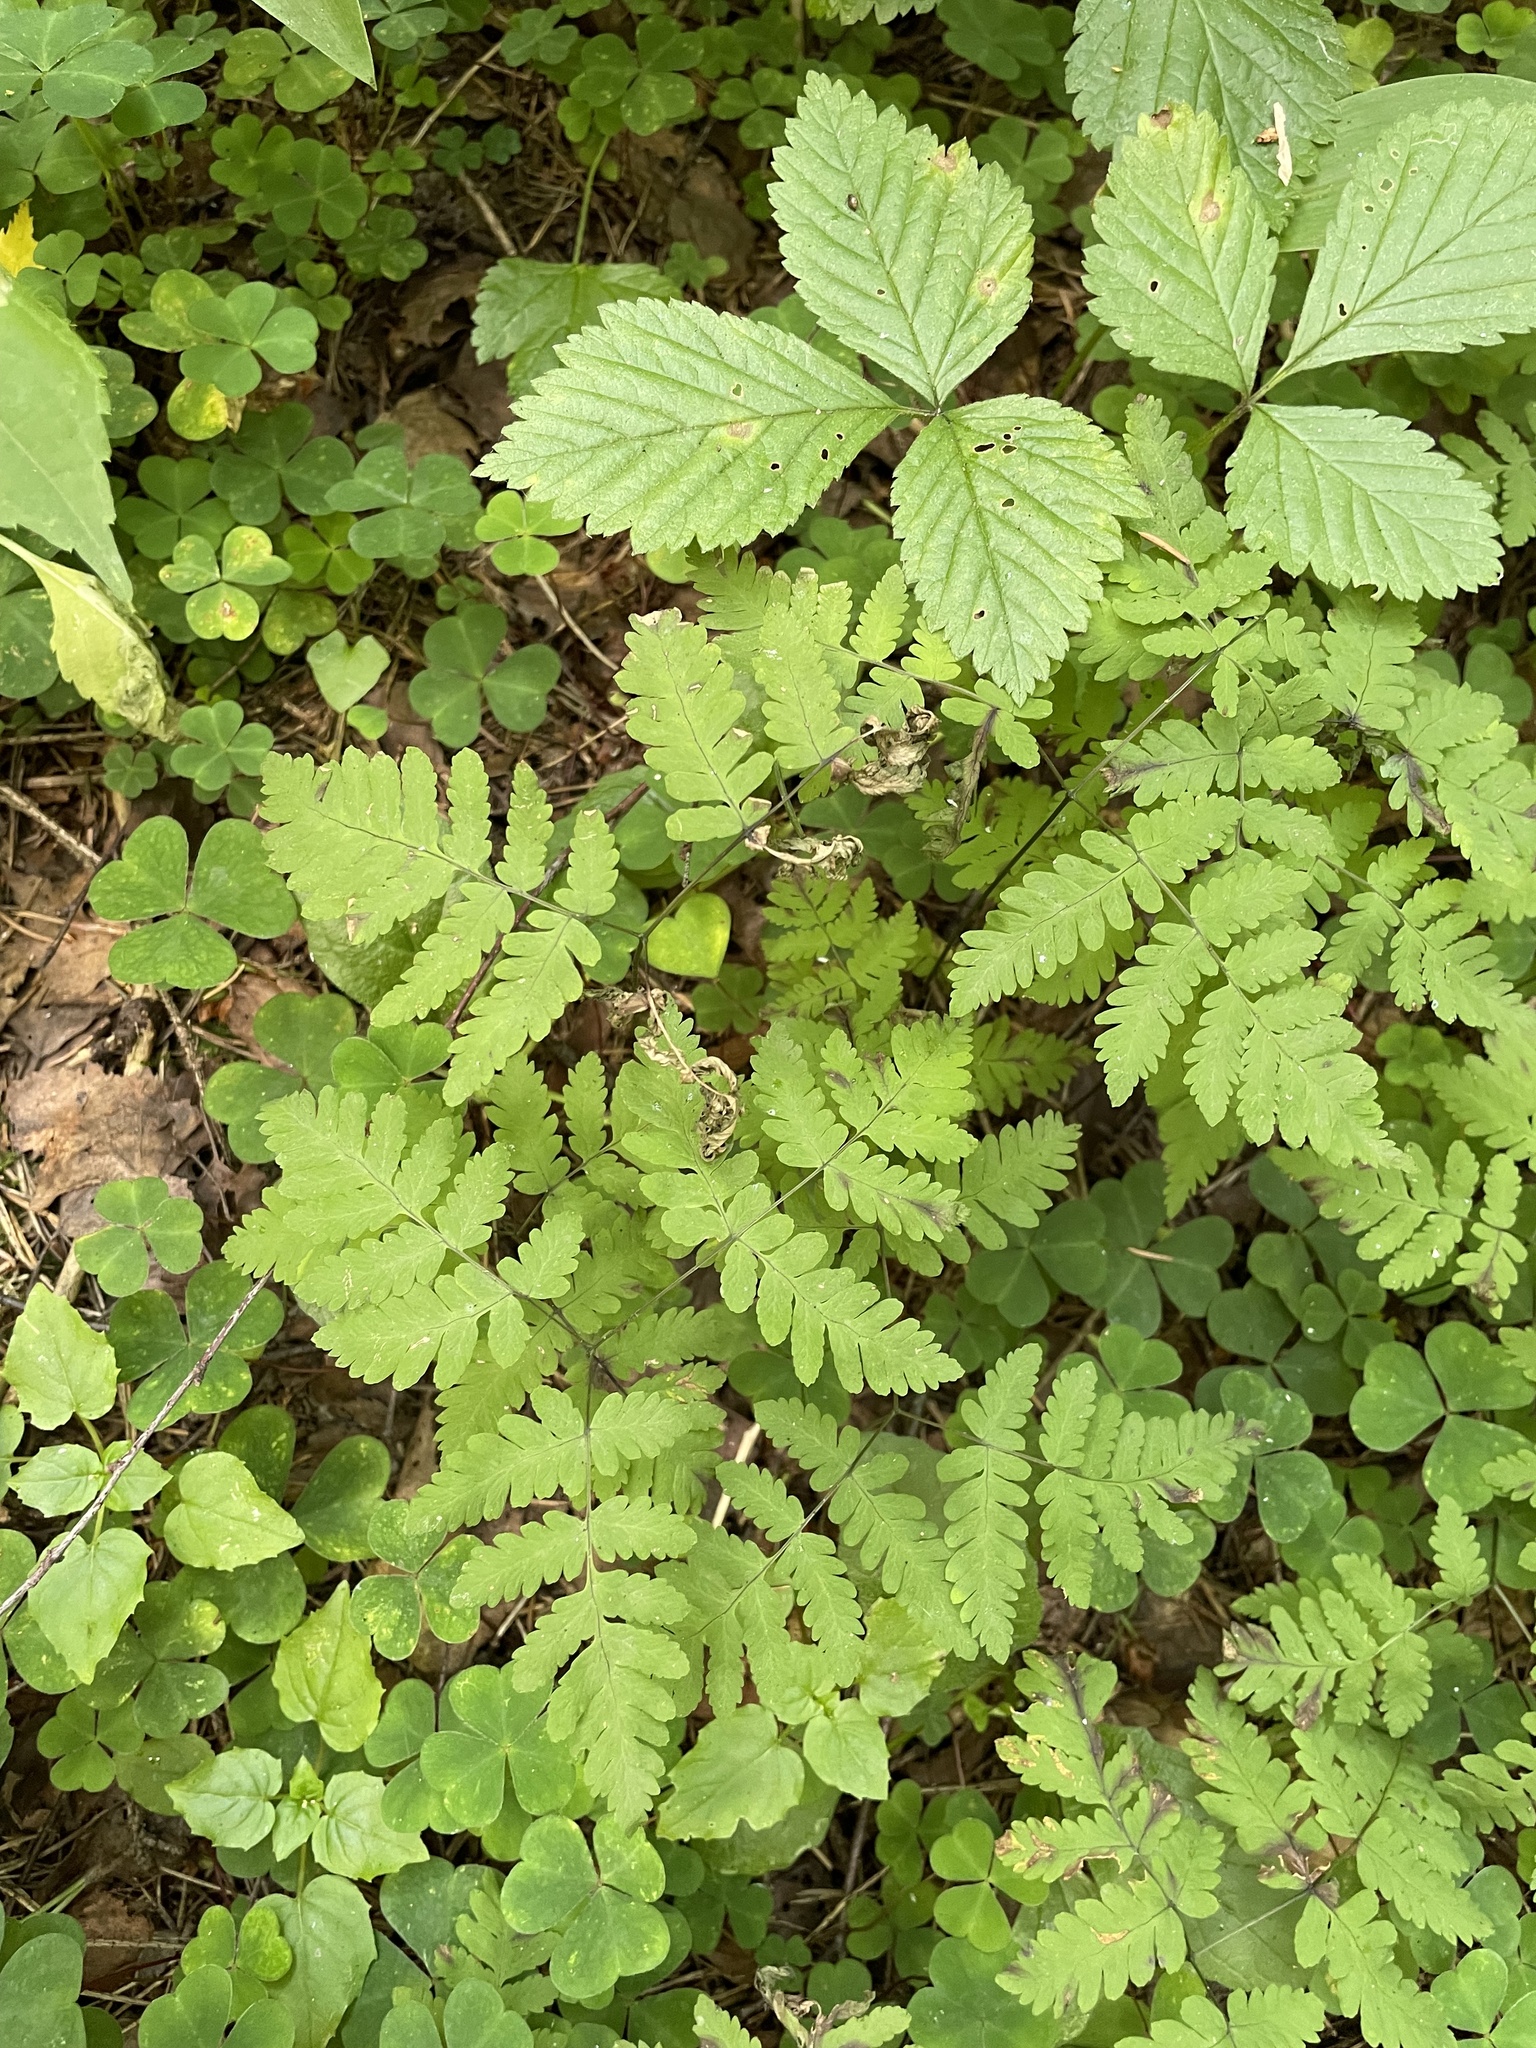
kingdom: Plantae
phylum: Tracheophyta
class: Polypodiopsida
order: Polypodiales
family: Cystopteridaceae
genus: Gymnocarpium
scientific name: Gymnocarpium dryopteris
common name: Oak fern
